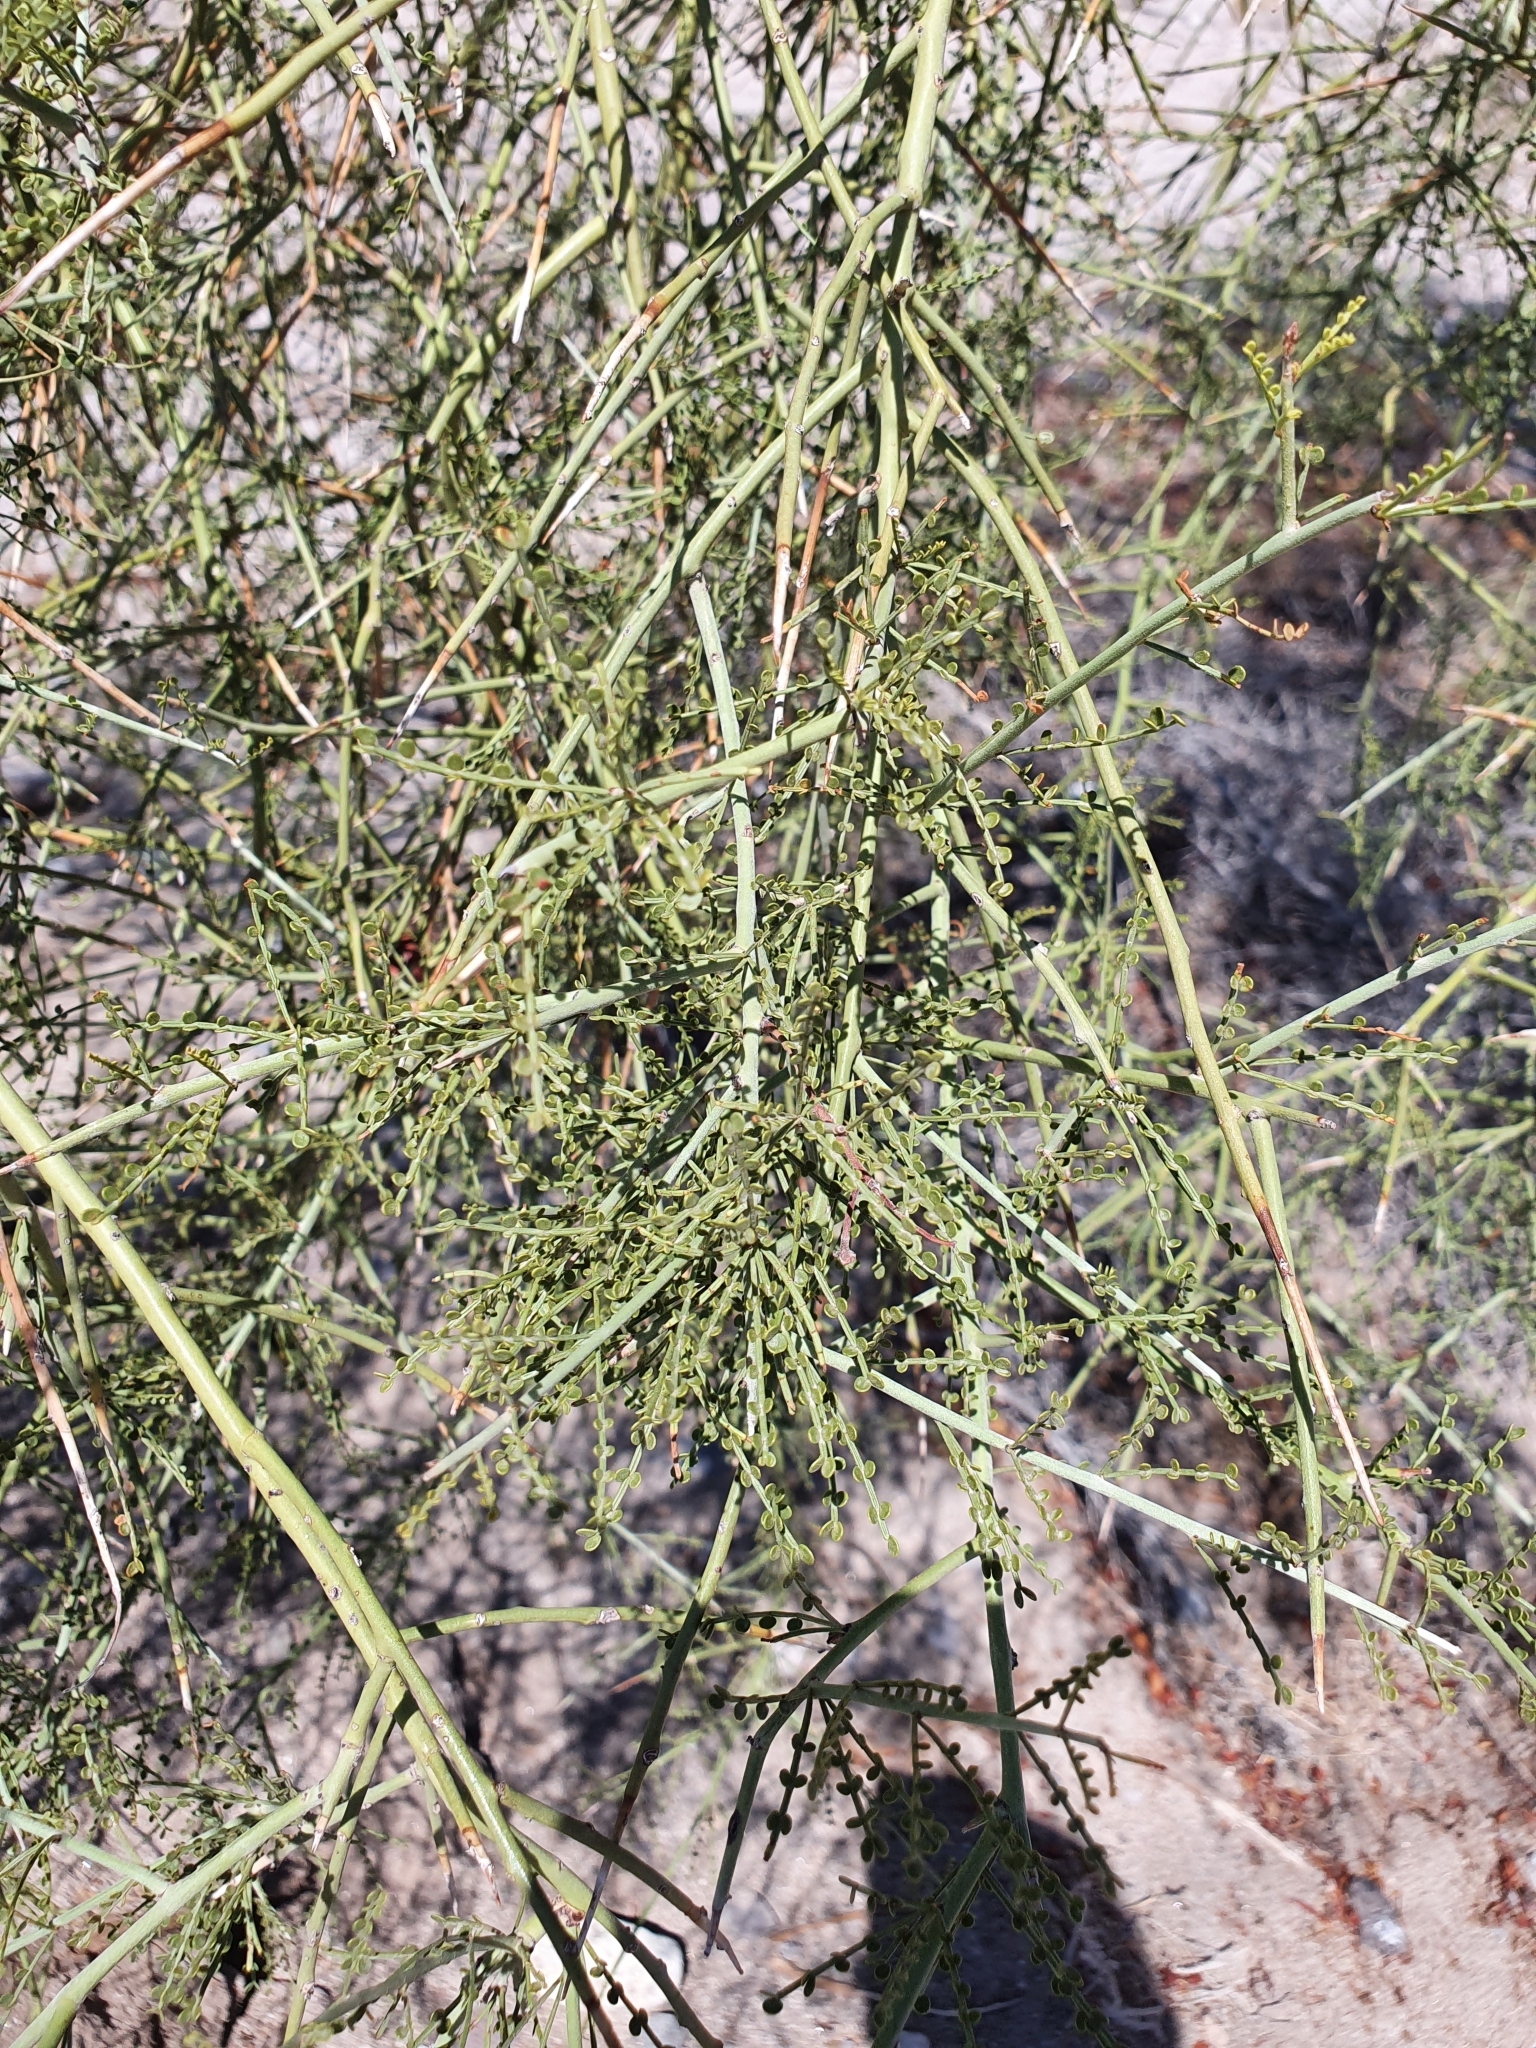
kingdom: Plantae
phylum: Tracheophyta
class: Magnoliopsida
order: Fabales
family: Fabaceae
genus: Parkinsonia
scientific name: Parkinsonia microphylla
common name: Yellow paloverde
